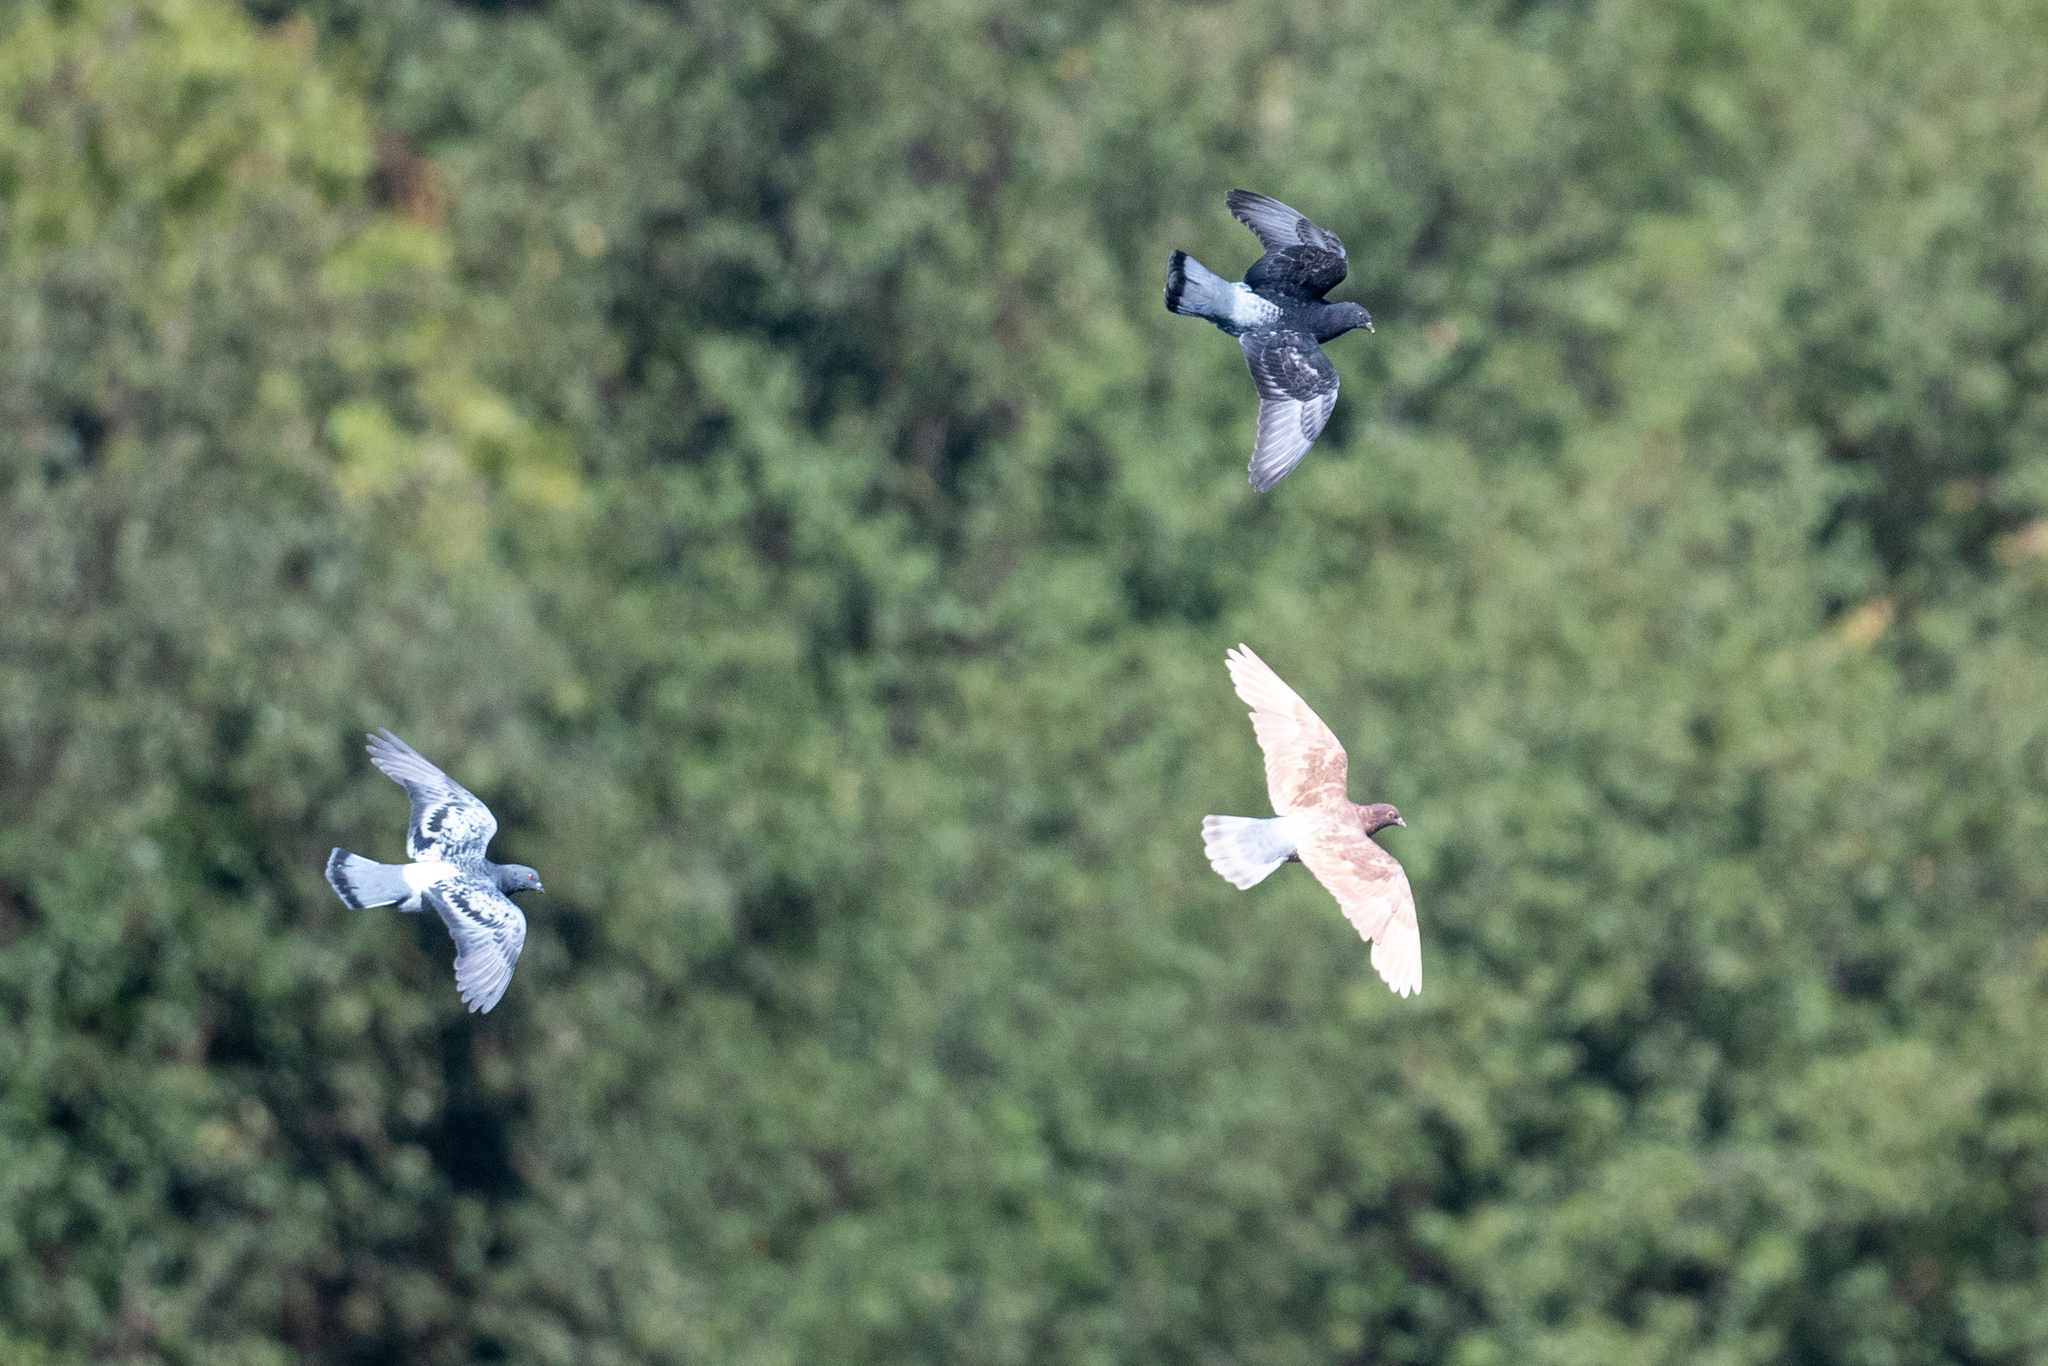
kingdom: Animalia
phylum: Chordata
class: Aves
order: Columbiformes
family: Columbidae
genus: Columba
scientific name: Columba livia
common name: Rock pigeon
